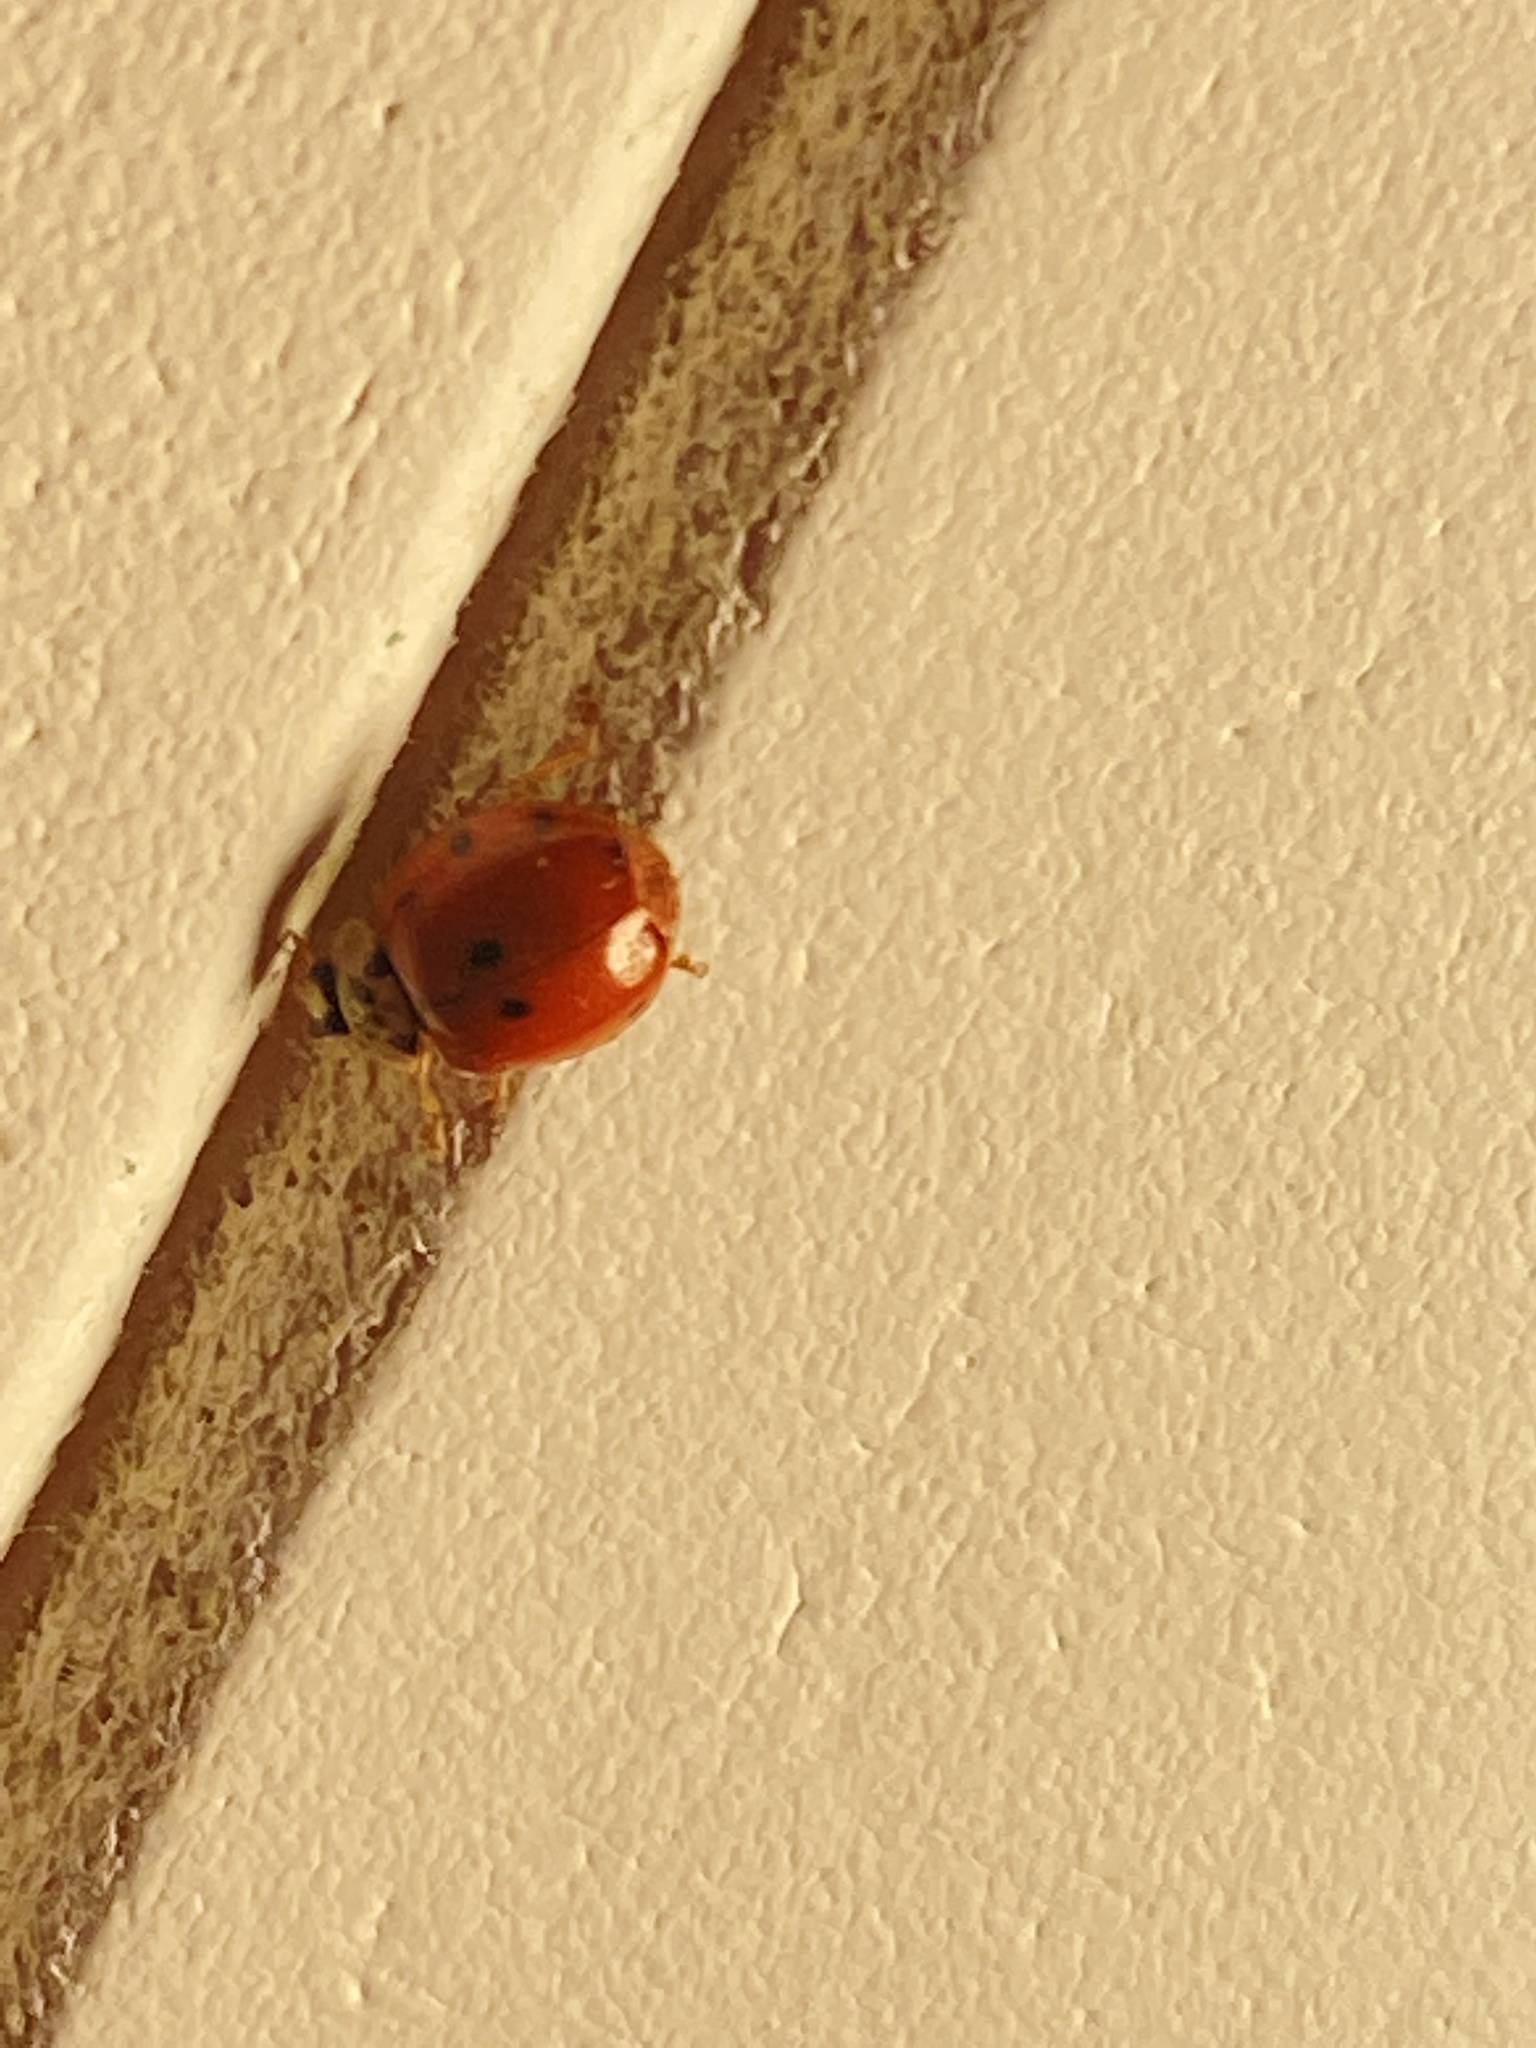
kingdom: Animalia
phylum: Arthropoda
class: Insecta
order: Coleoptera
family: Coccinellidae
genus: Harmonia
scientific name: Harmonia axyridis
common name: Harlequin ladybird
